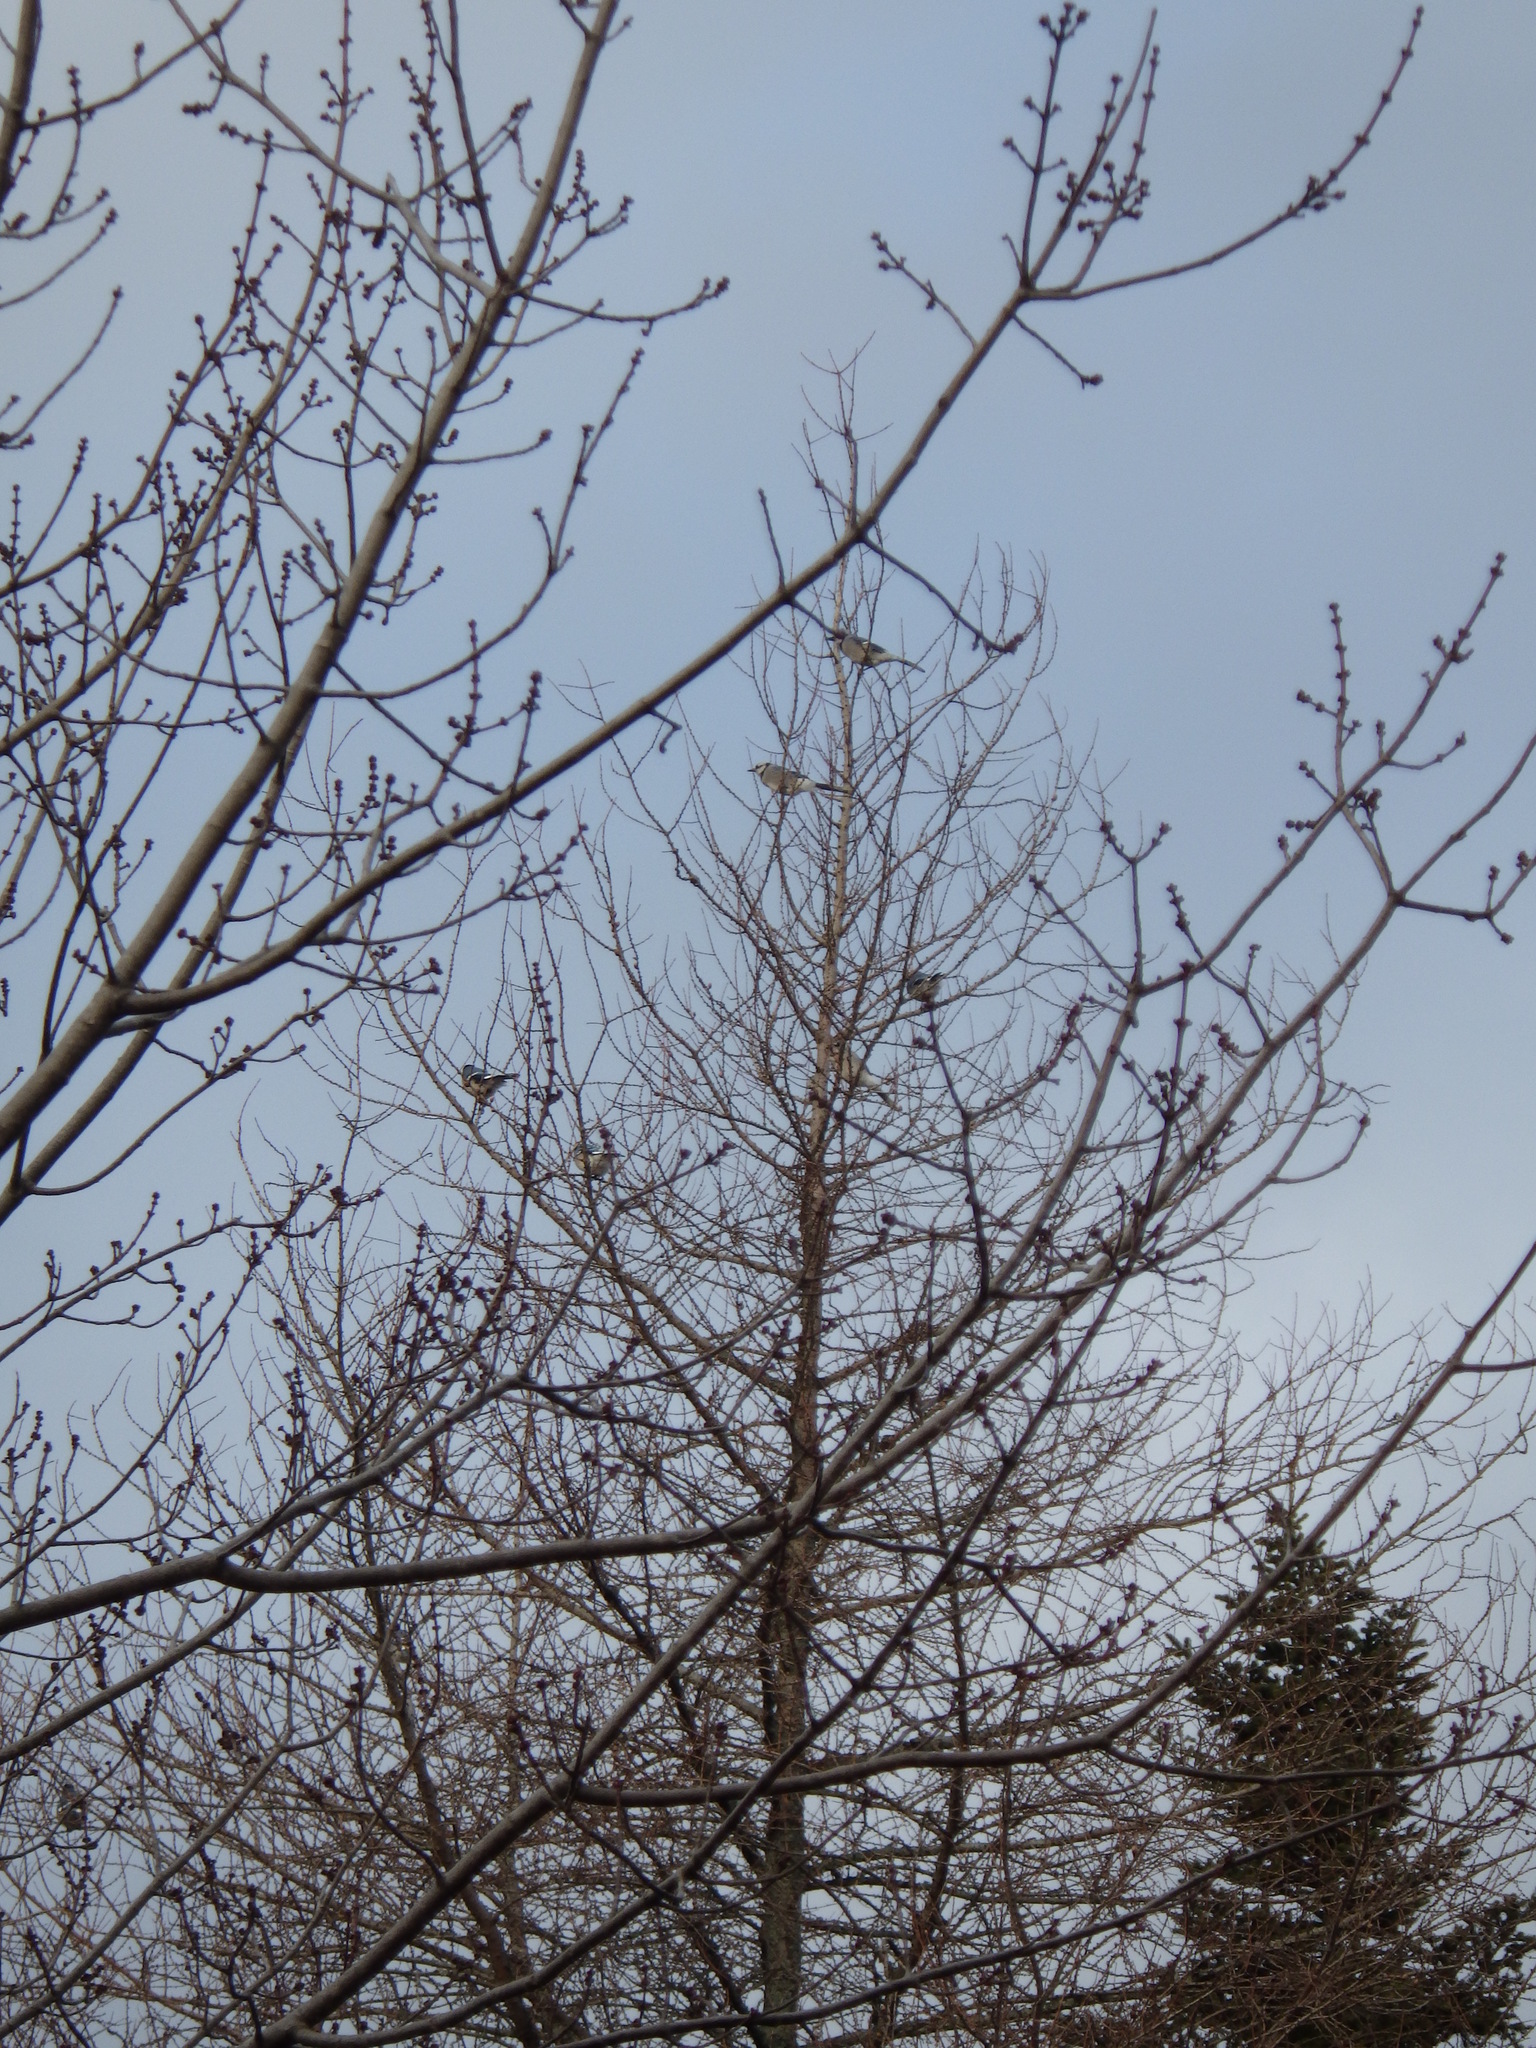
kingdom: Animalia
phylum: Chordata
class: Aves
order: Passeriformes
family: Corvidae
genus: Cyanocitta
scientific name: Cyanocitta cristata
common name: Blue jay
